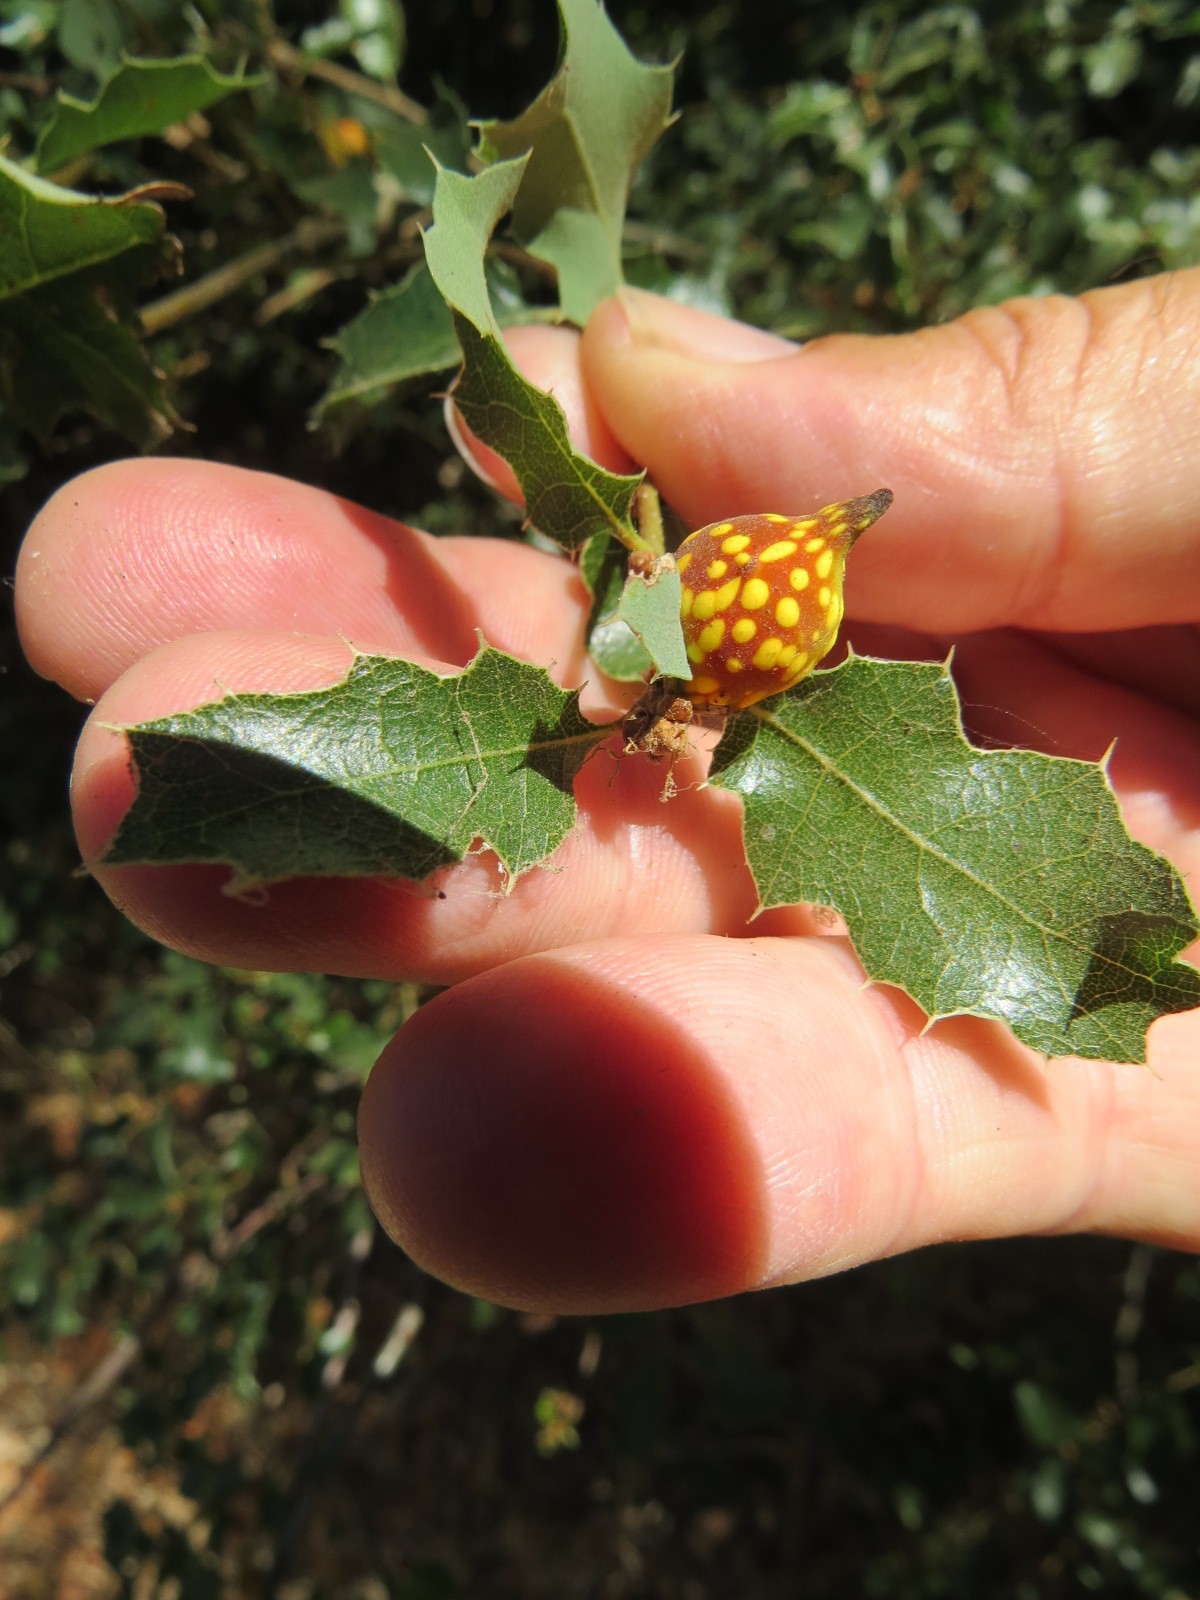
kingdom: Animalia
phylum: Arthropoda
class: Insecta
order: Hymenoptera
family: Cynipidae
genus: Burnettweldia
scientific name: Burnettweldia
